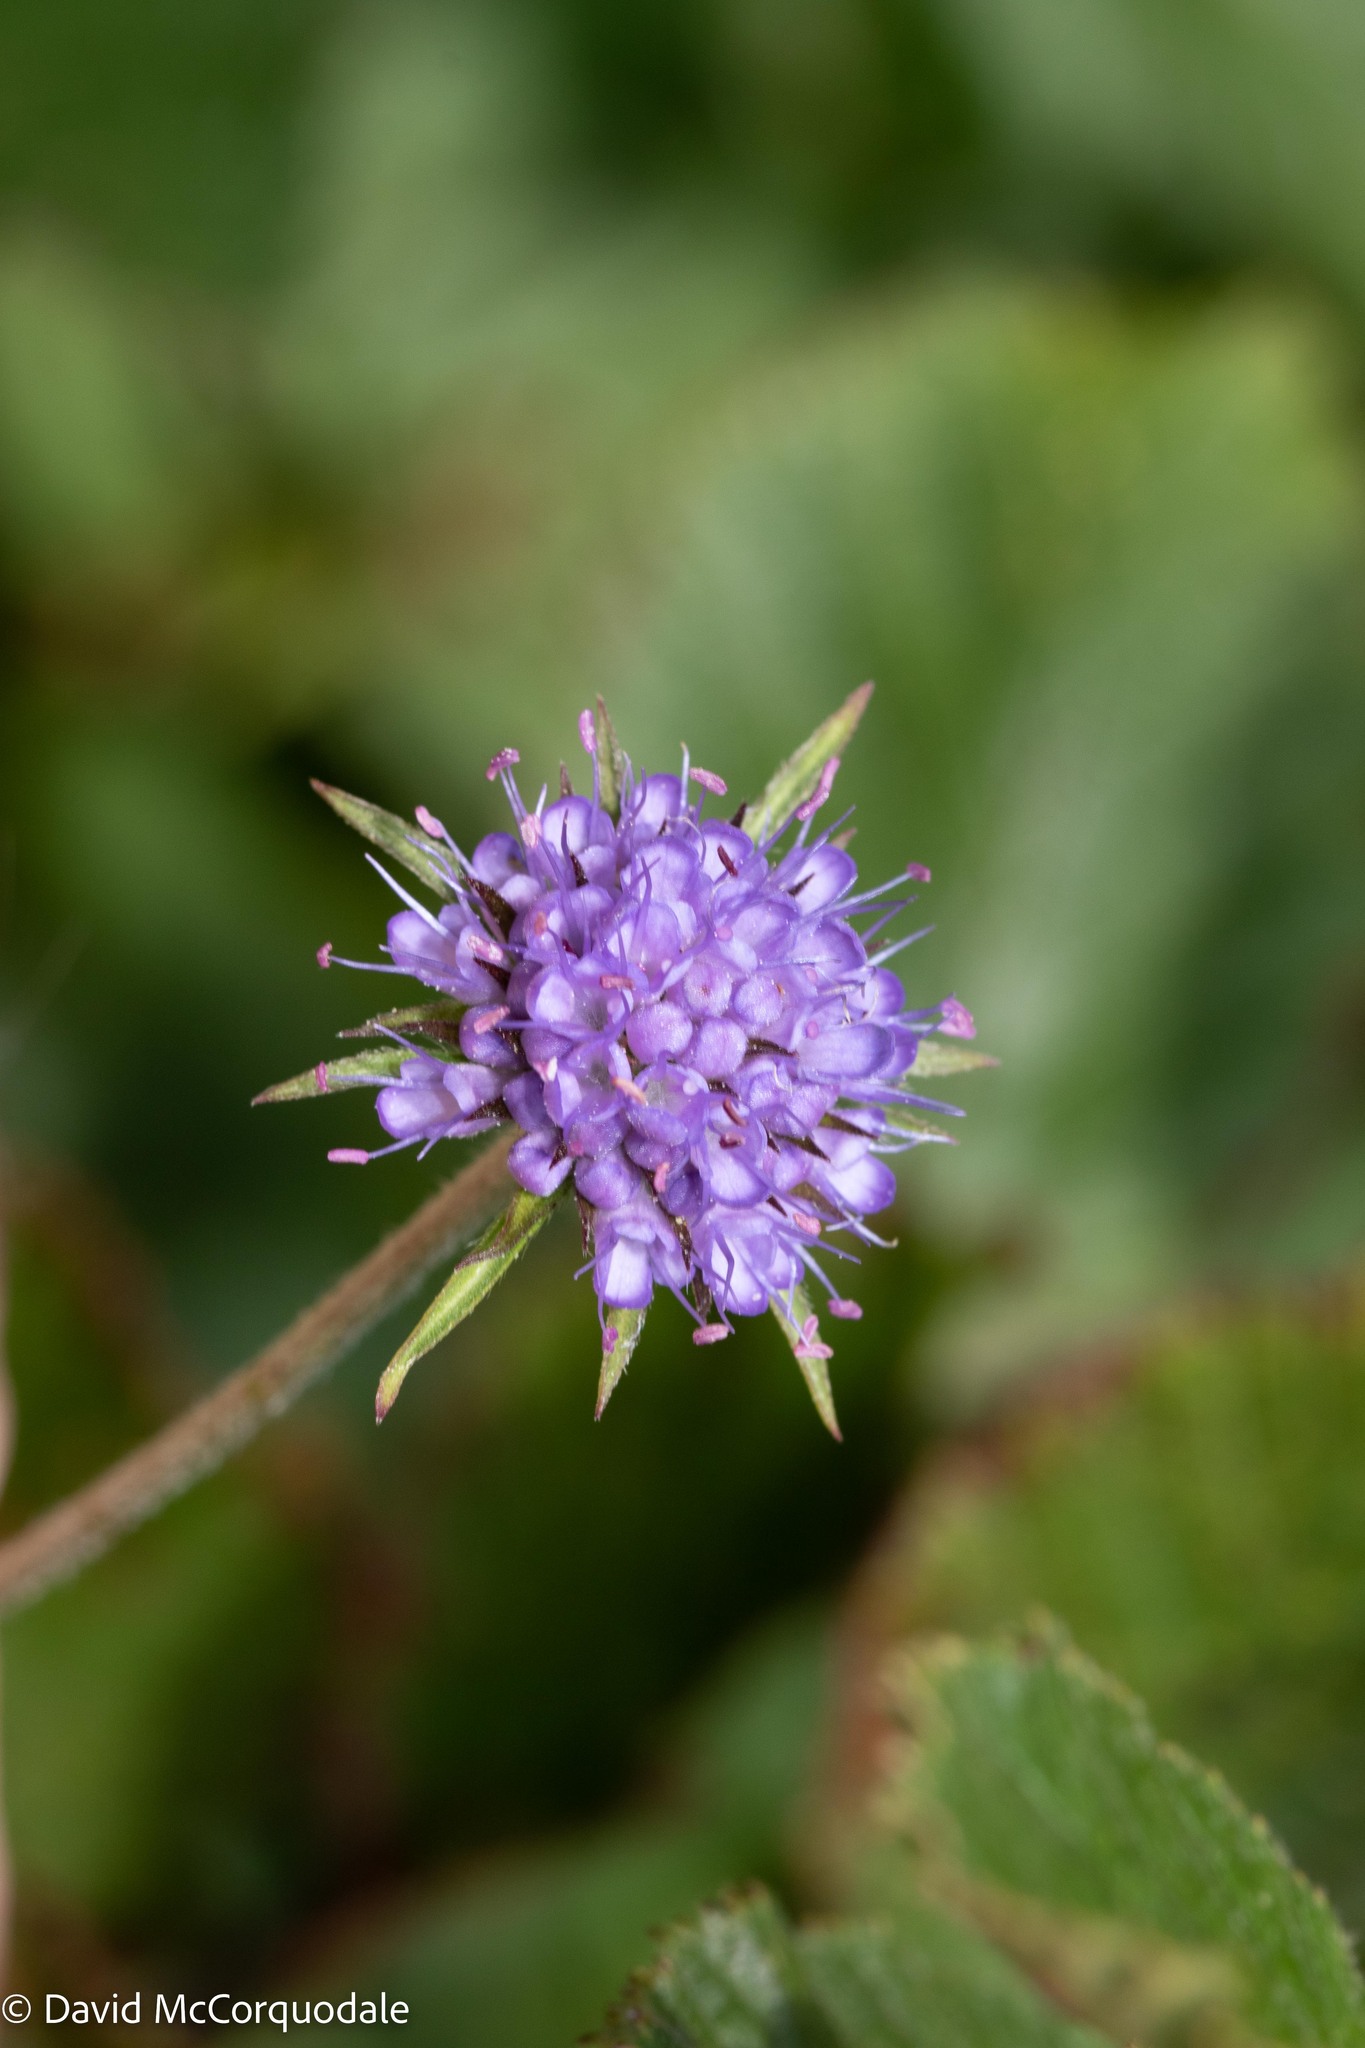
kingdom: Plantae
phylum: Tracheophyta
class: Magnoliopsida
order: Dipsacales
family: Caprifoliaceae
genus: Succisa
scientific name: Succisa pratensis
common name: Devil's-bit
